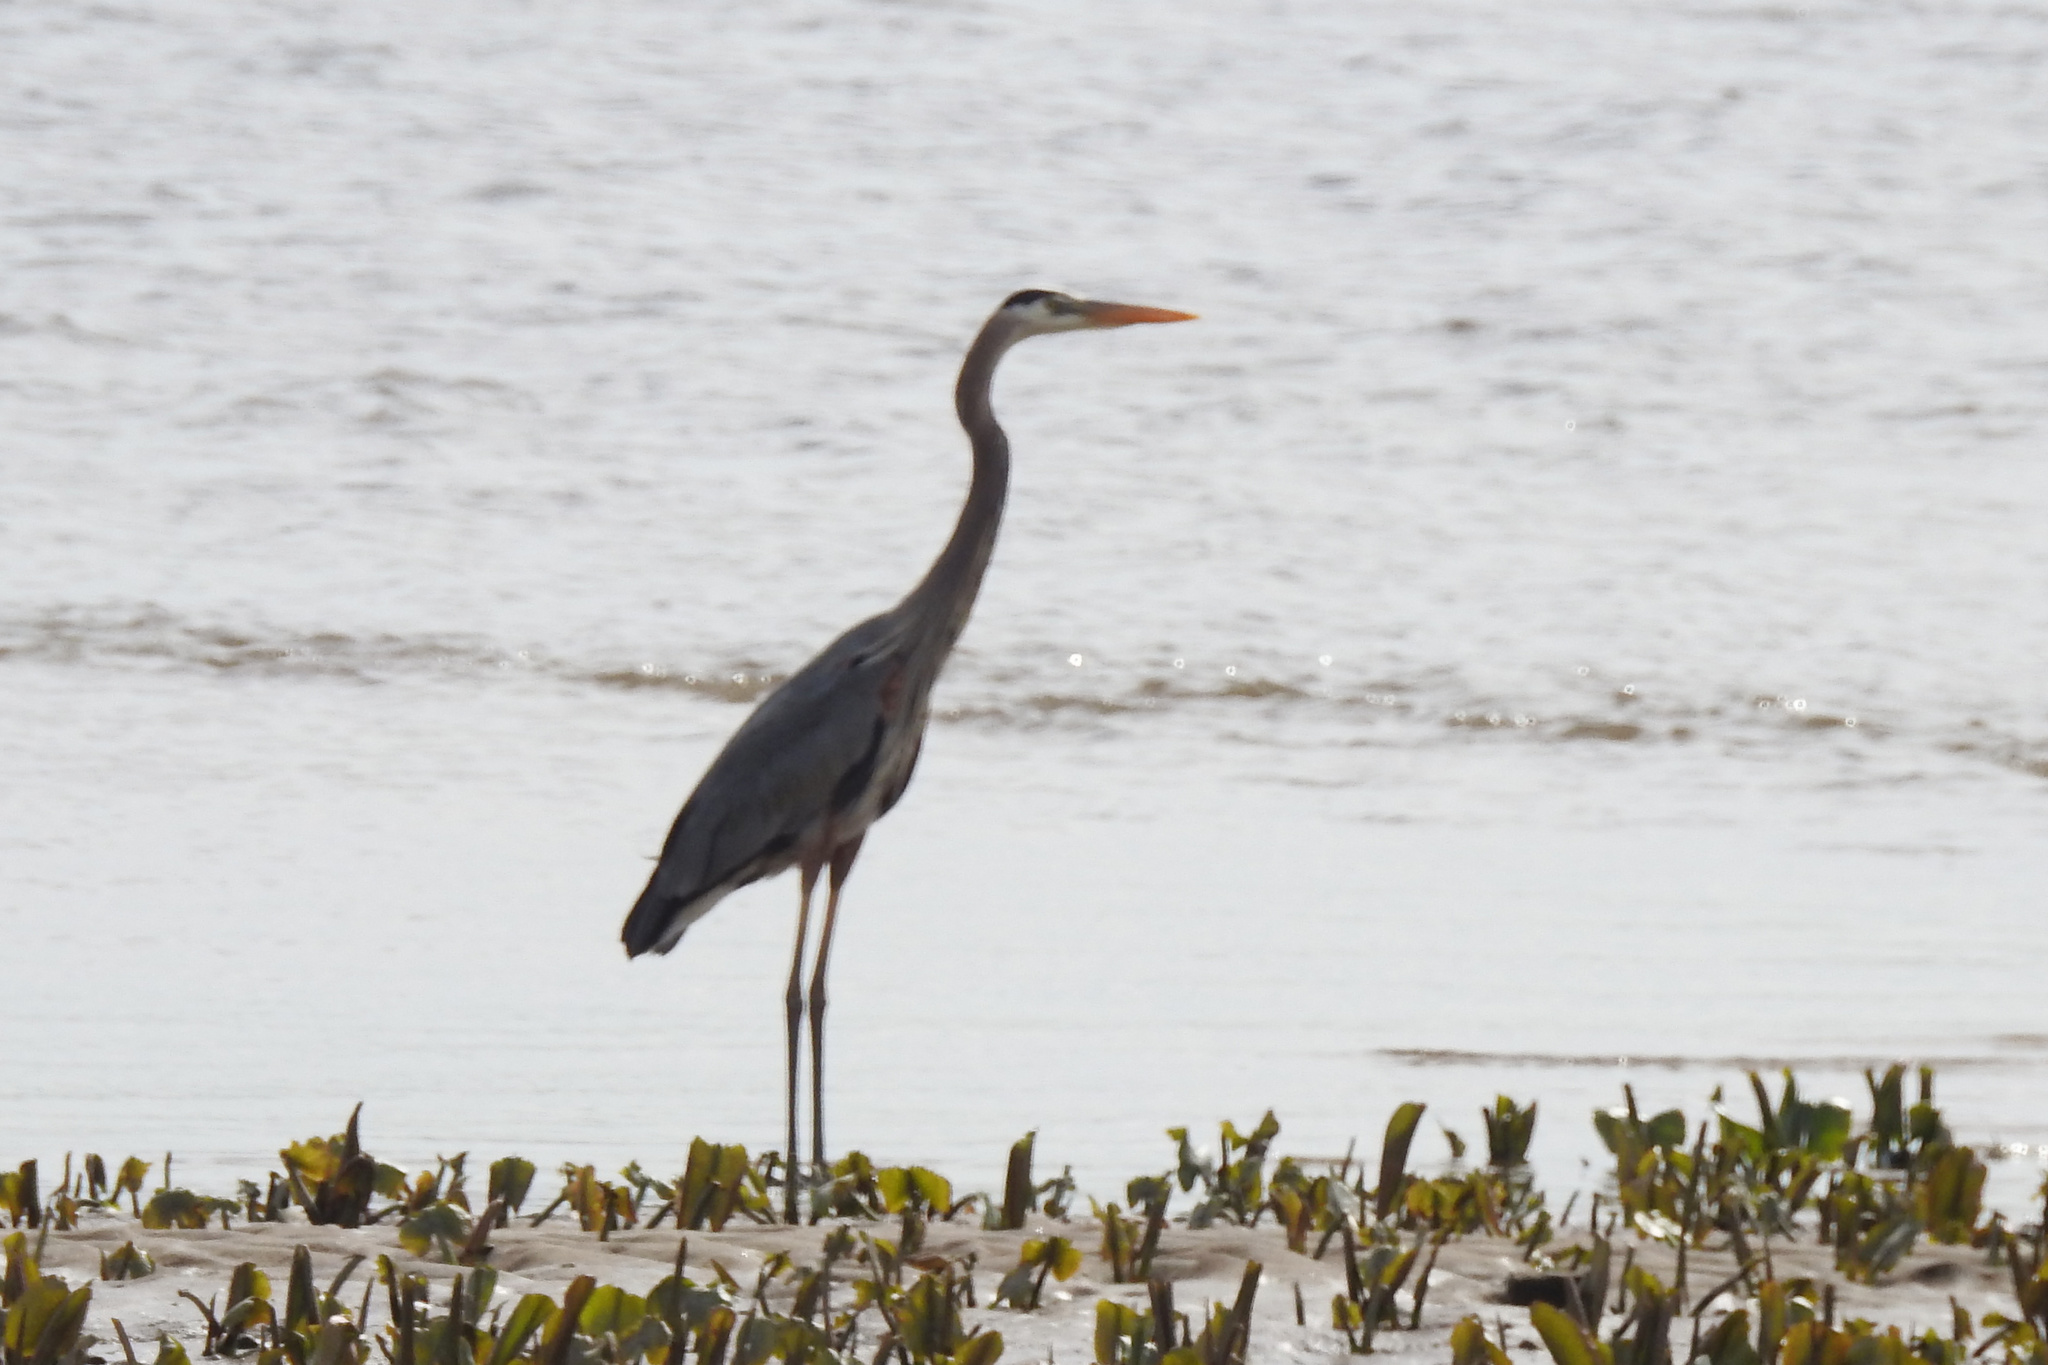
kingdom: Animalia
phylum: Chordata
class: Aves
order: Pelecaniformes
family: Ardeidae
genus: Ardea
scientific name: Ardea herodias
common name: Great blue heron
